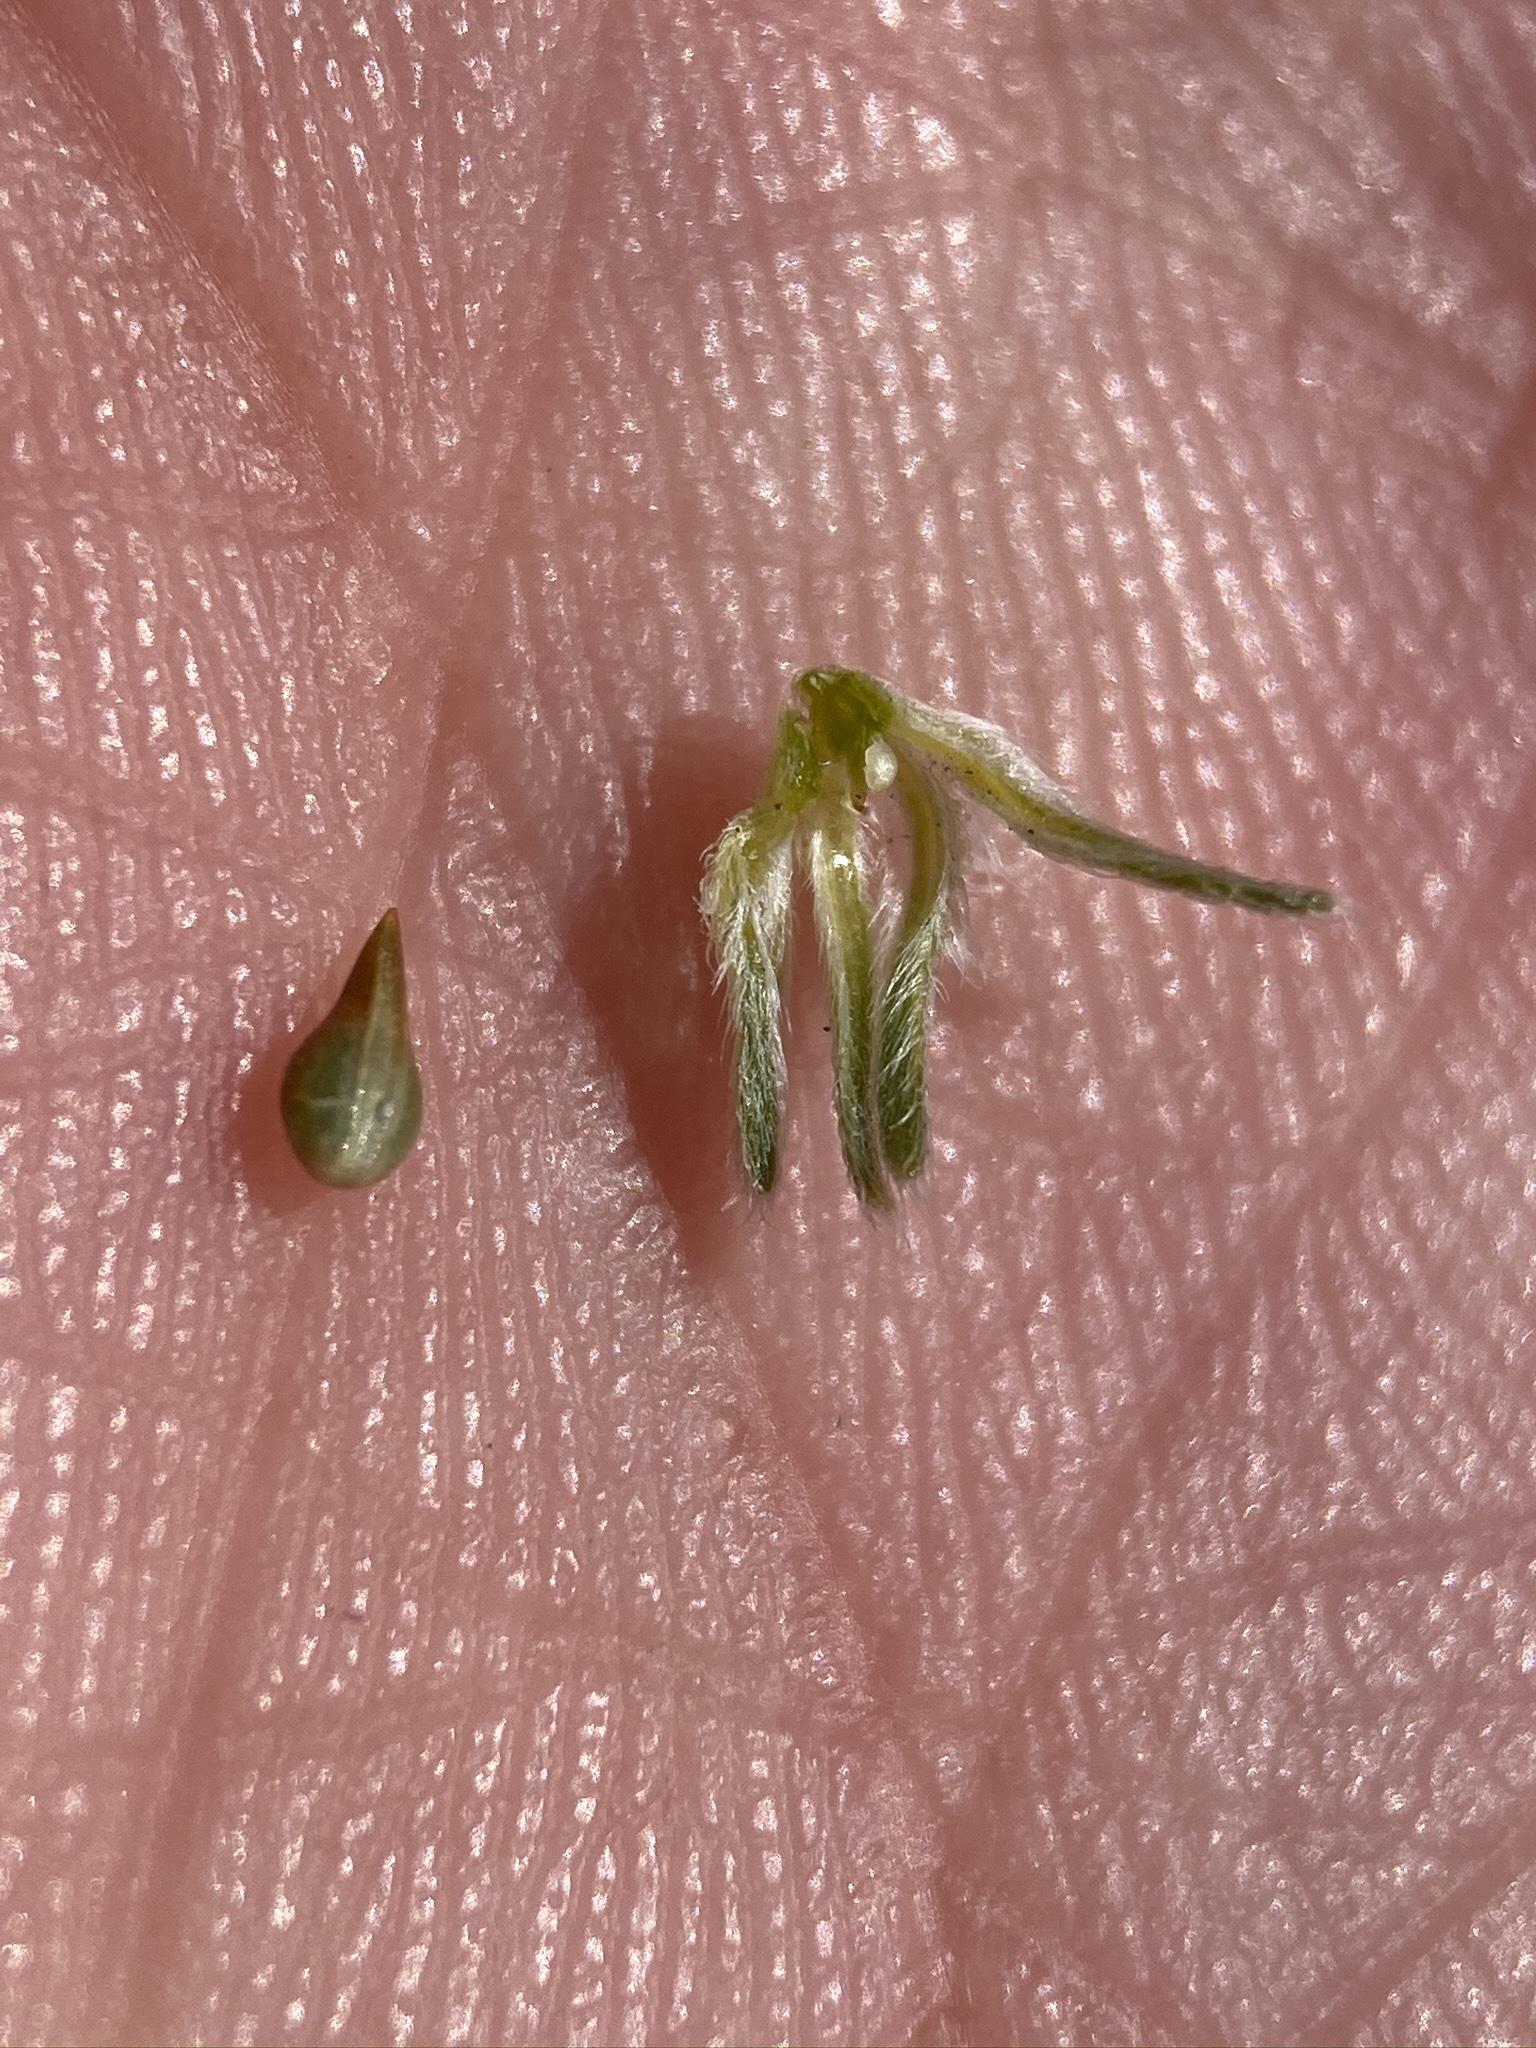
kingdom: Plantae
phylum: Tracheophyta
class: Magnoliopsida
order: Boraginales
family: Boraginaceae
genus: Cryptantha
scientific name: Cryptantha flaccida
